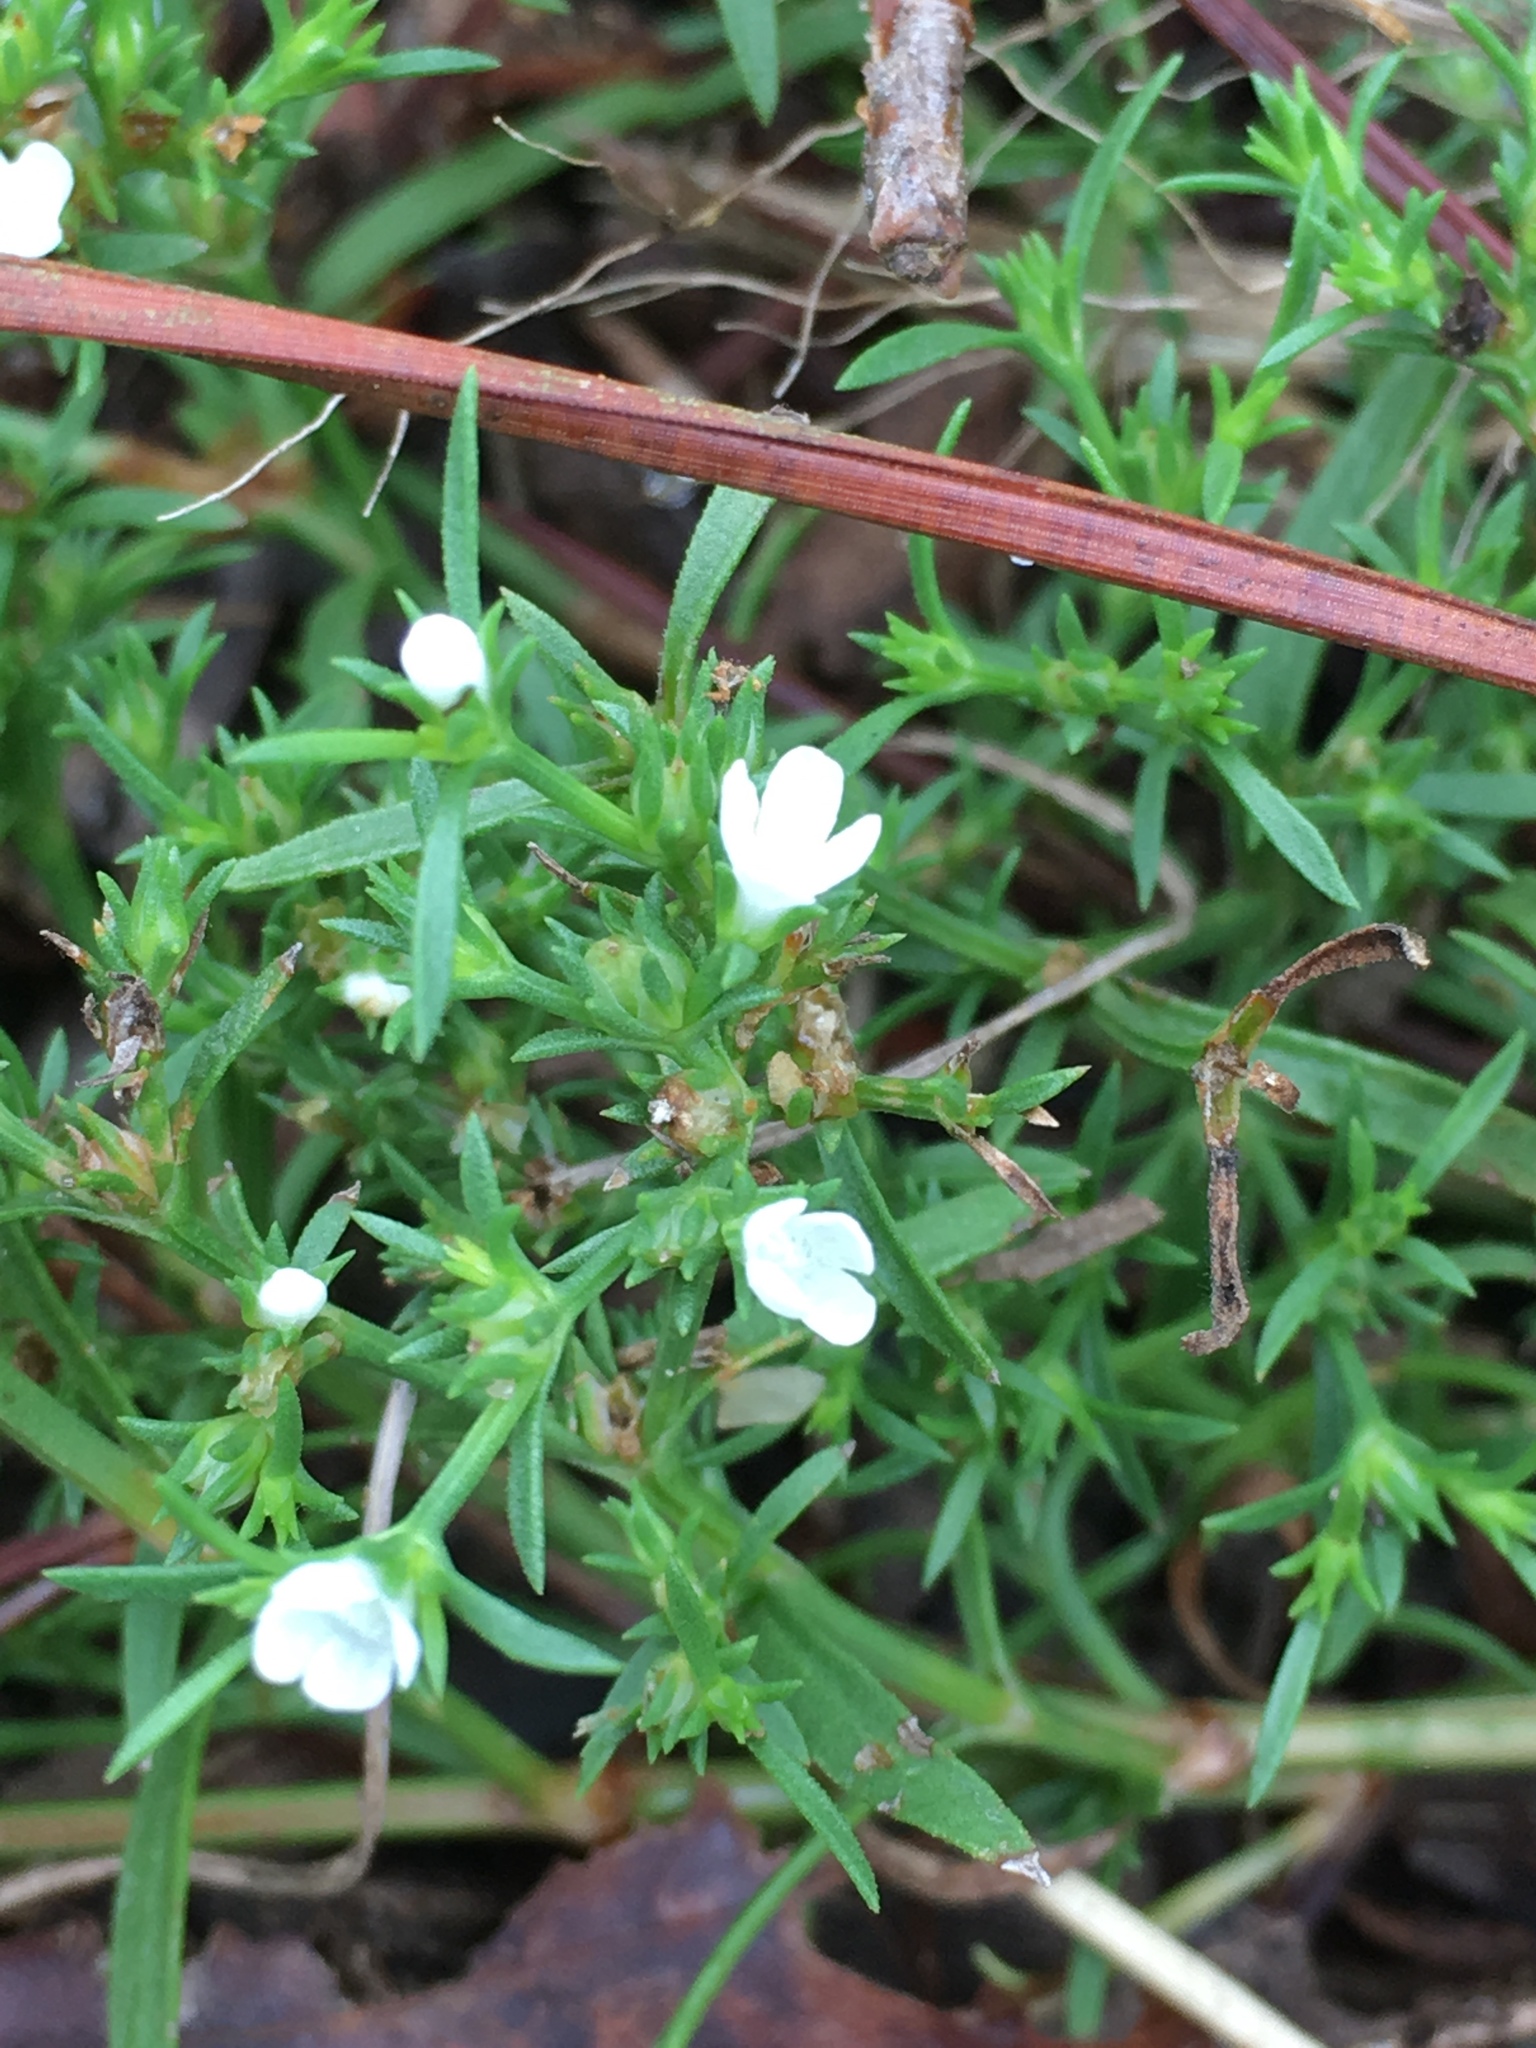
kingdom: Plantae
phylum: Tracheophyta
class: Magnoliopsida
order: Lamiales
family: Tetrachondraceae
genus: Polypremum
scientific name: Polypremum procumbens
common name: Juniper-leaf
